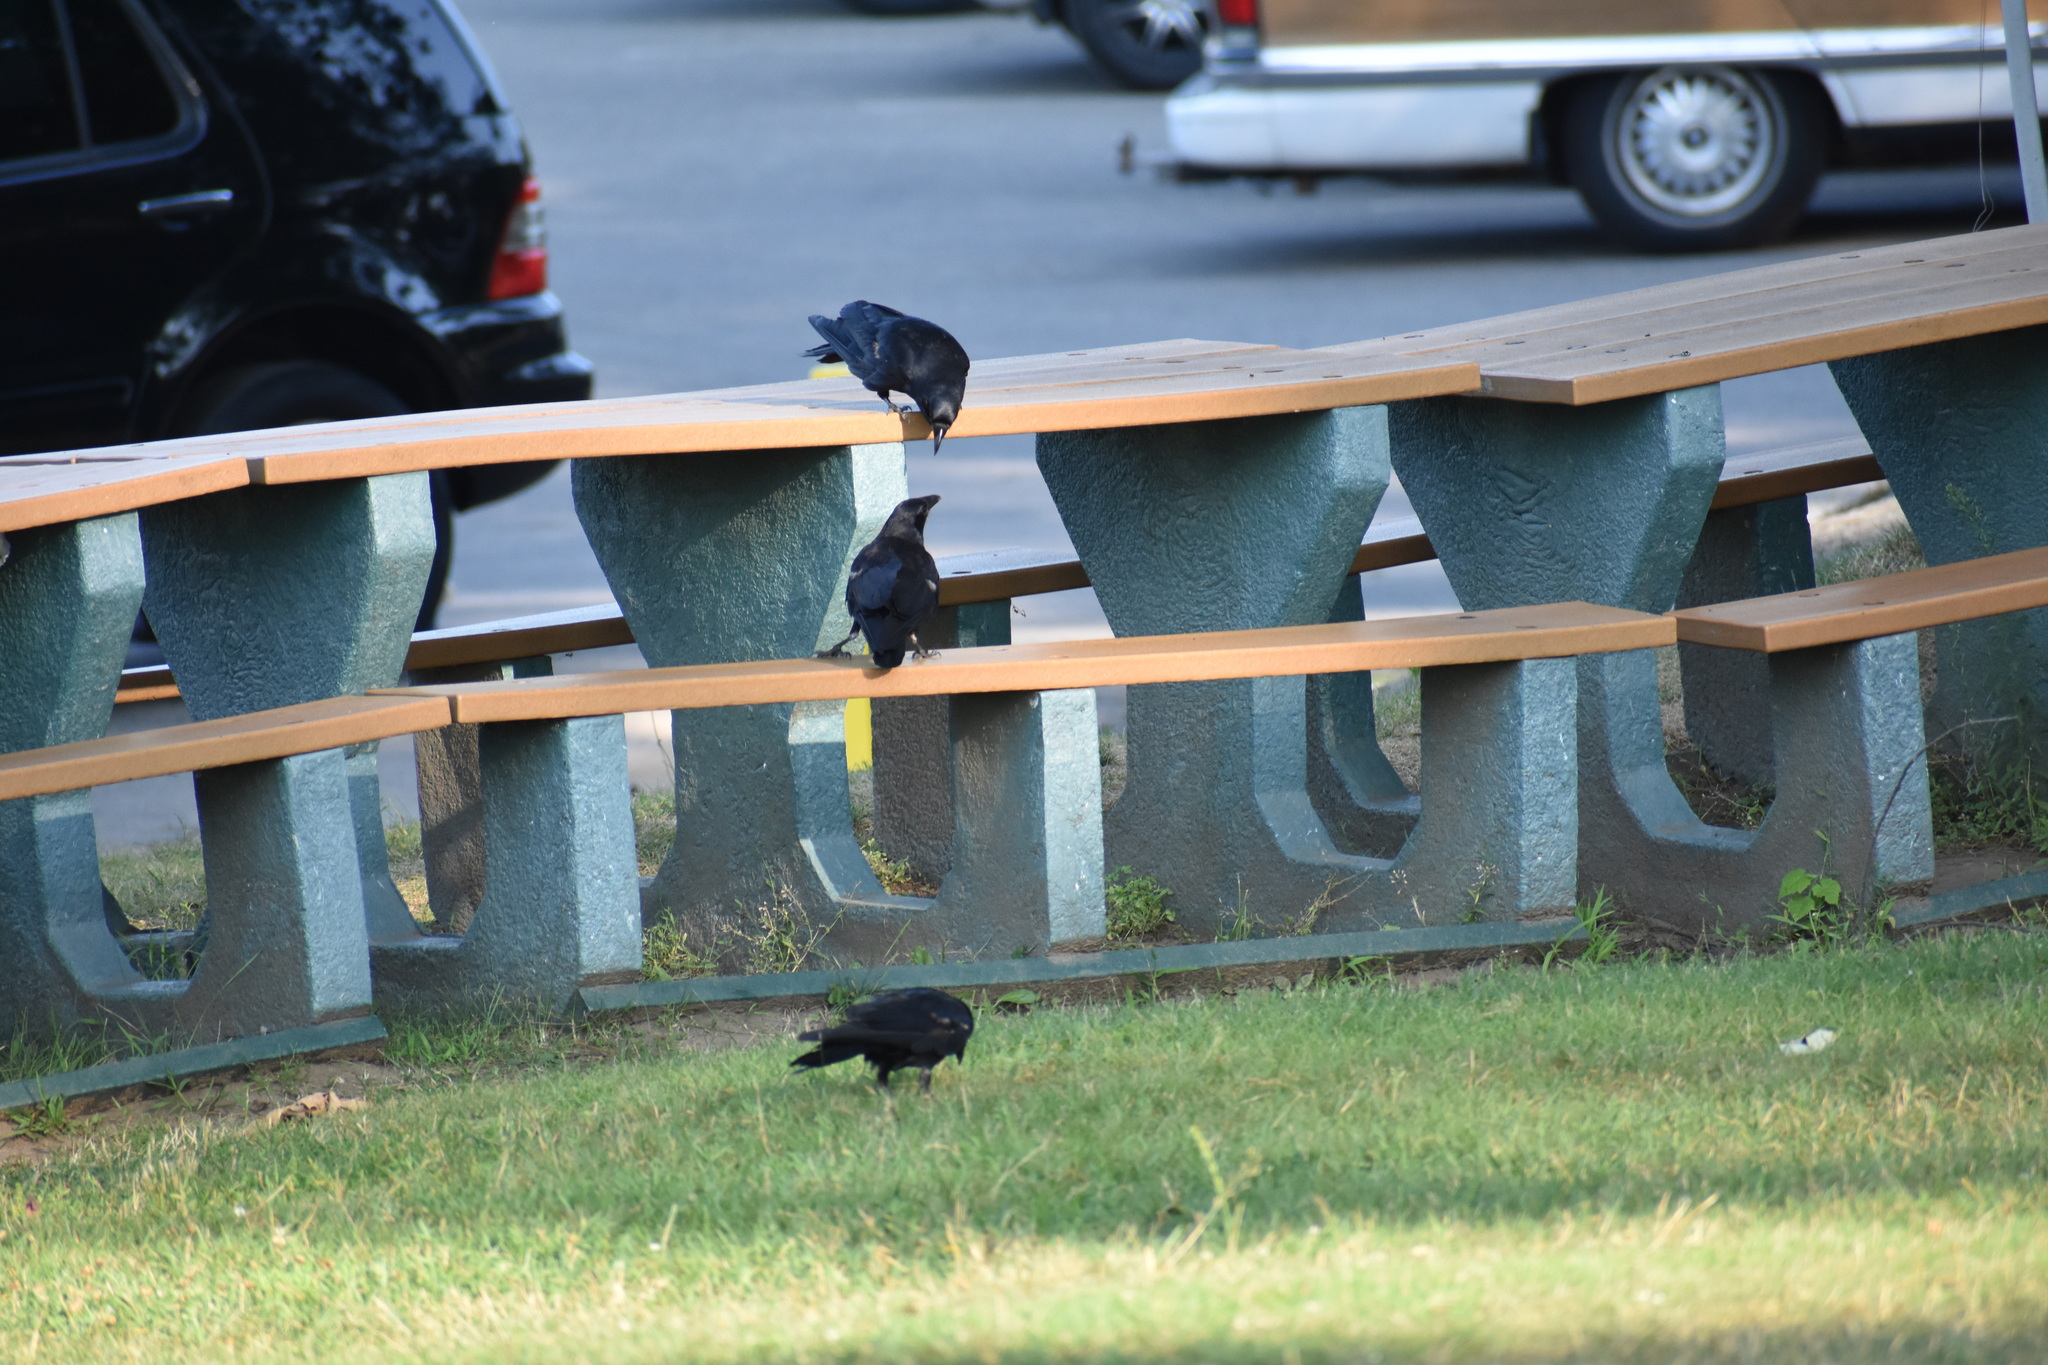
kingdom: Animalia
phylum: Chordata
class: Aves
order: Passeriformes
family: Corvidae
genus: Corvus
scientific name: Corvus
